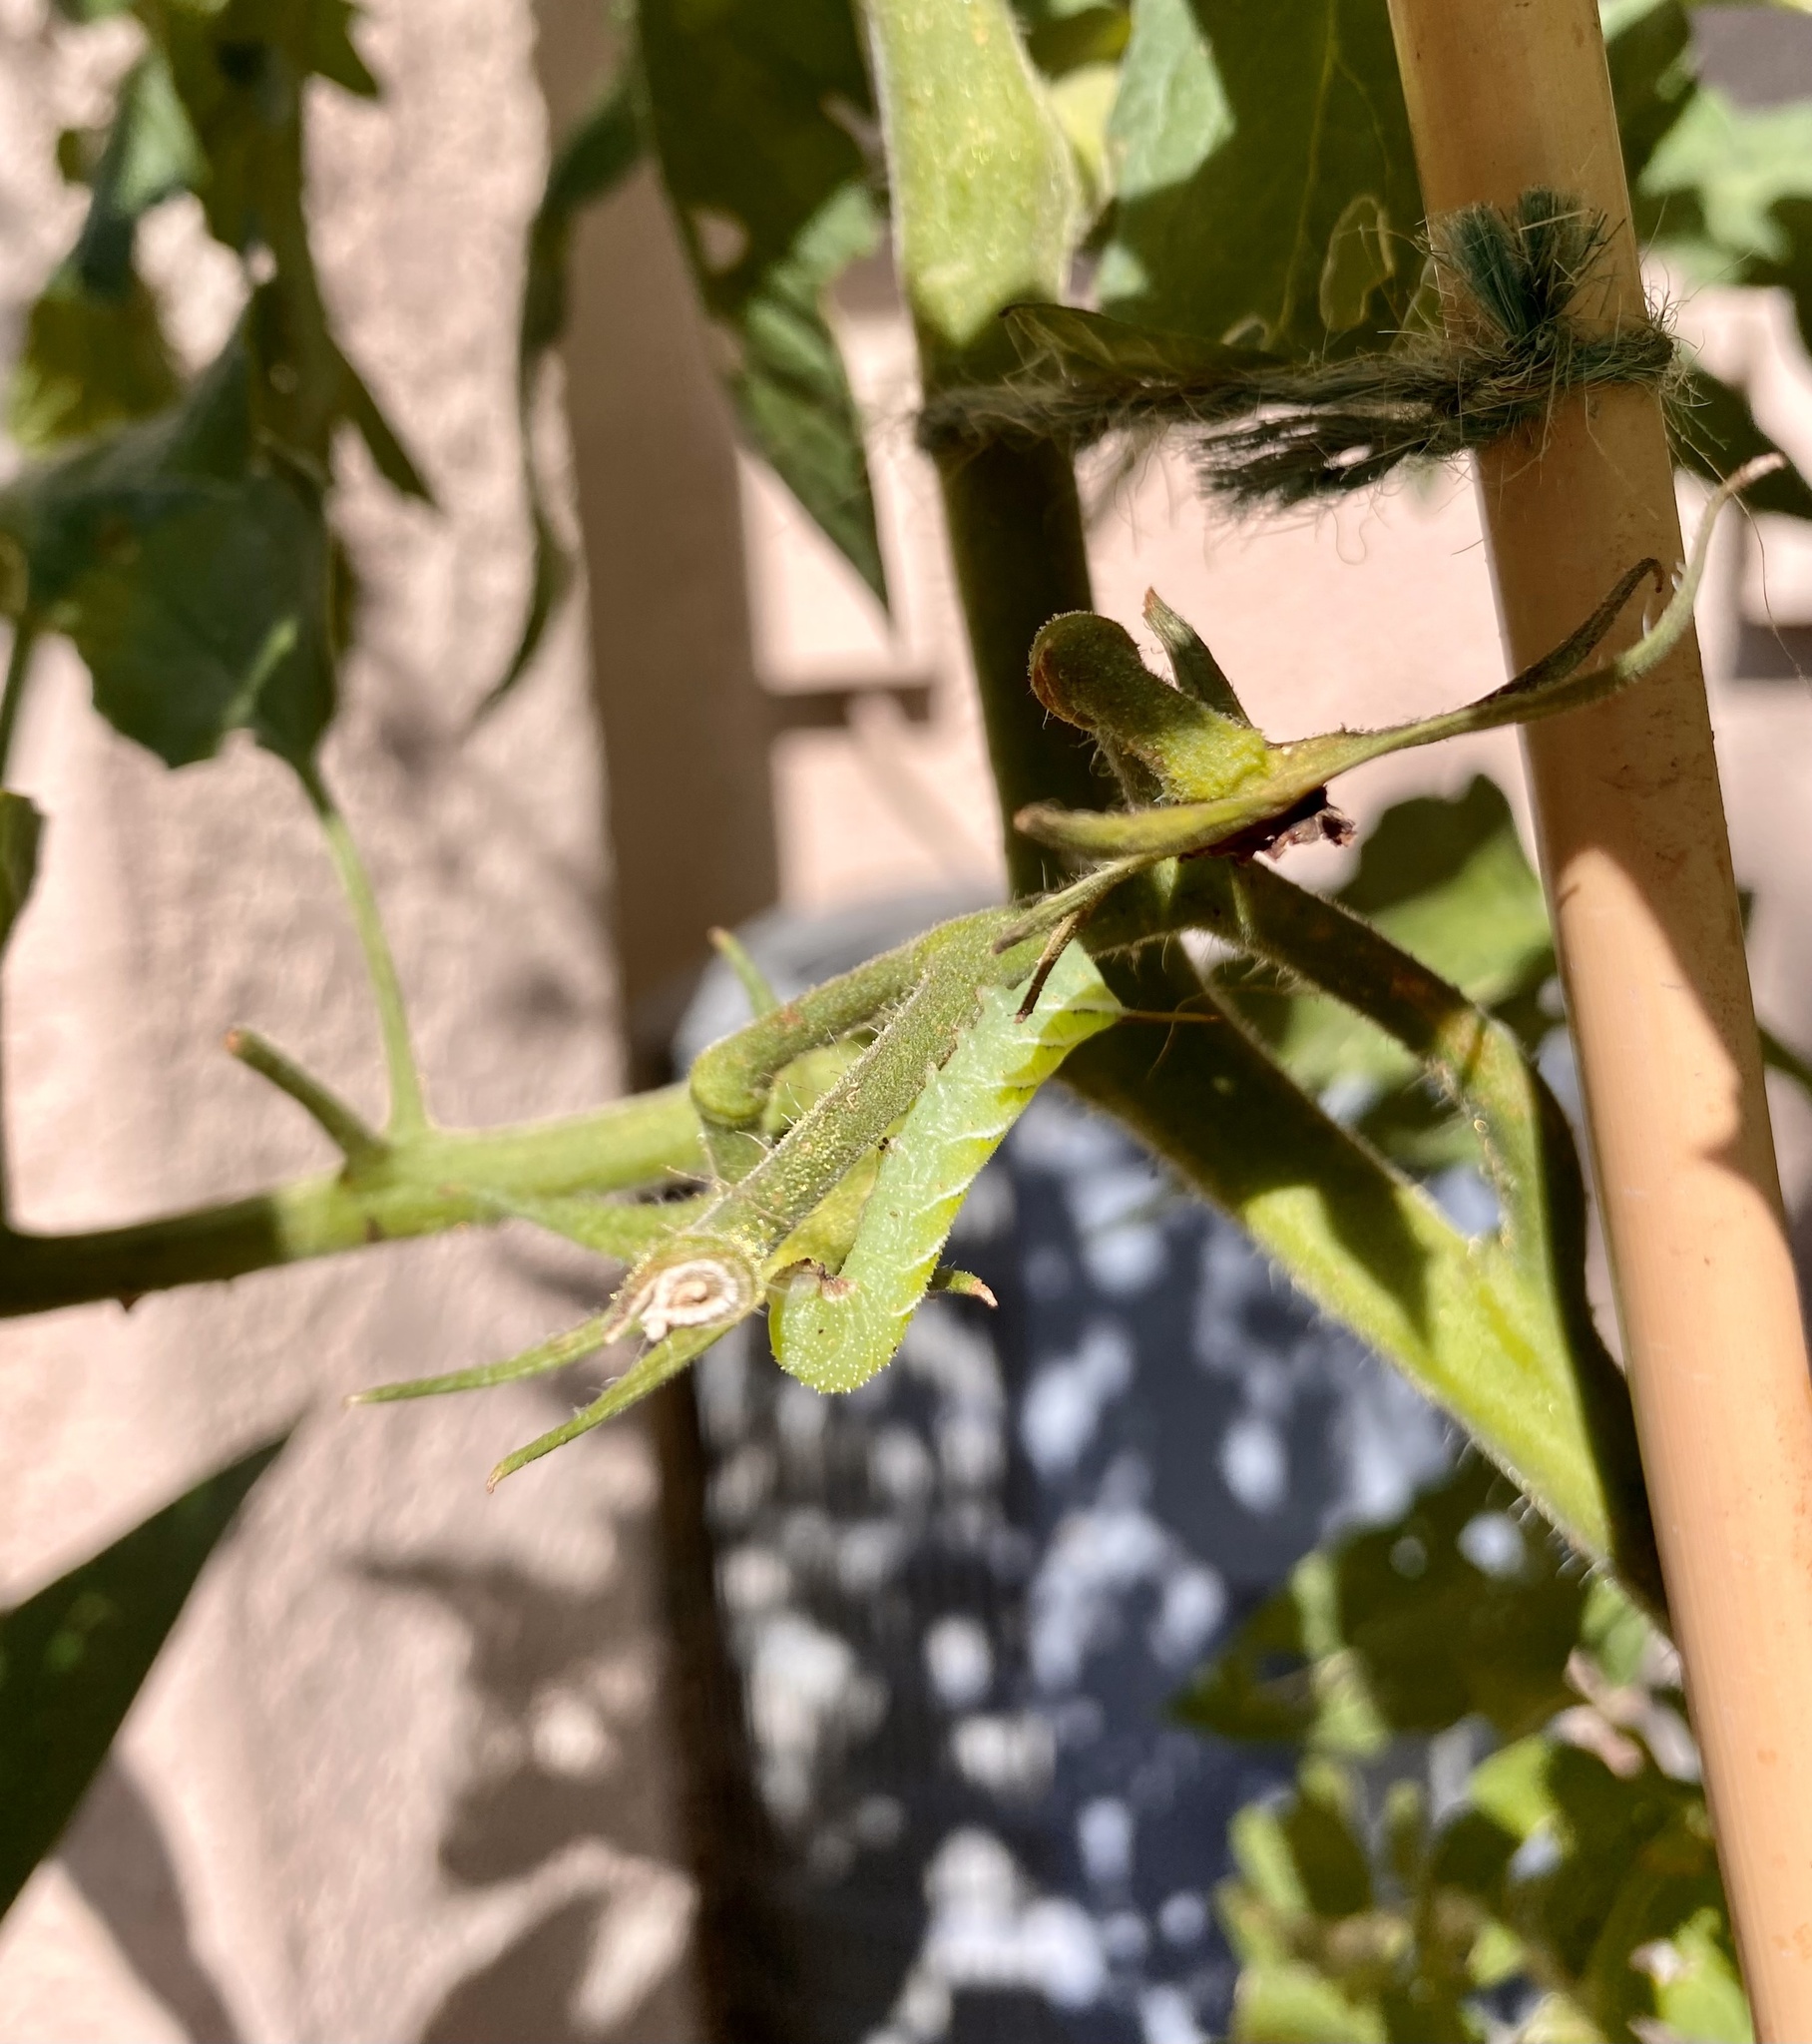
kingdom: Animalia
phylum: Arthropoda
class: Insecta
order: Lepidoptera
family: Sphingidae
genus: Manduca
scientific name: Manduca sexta
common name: Carolina sphinx
